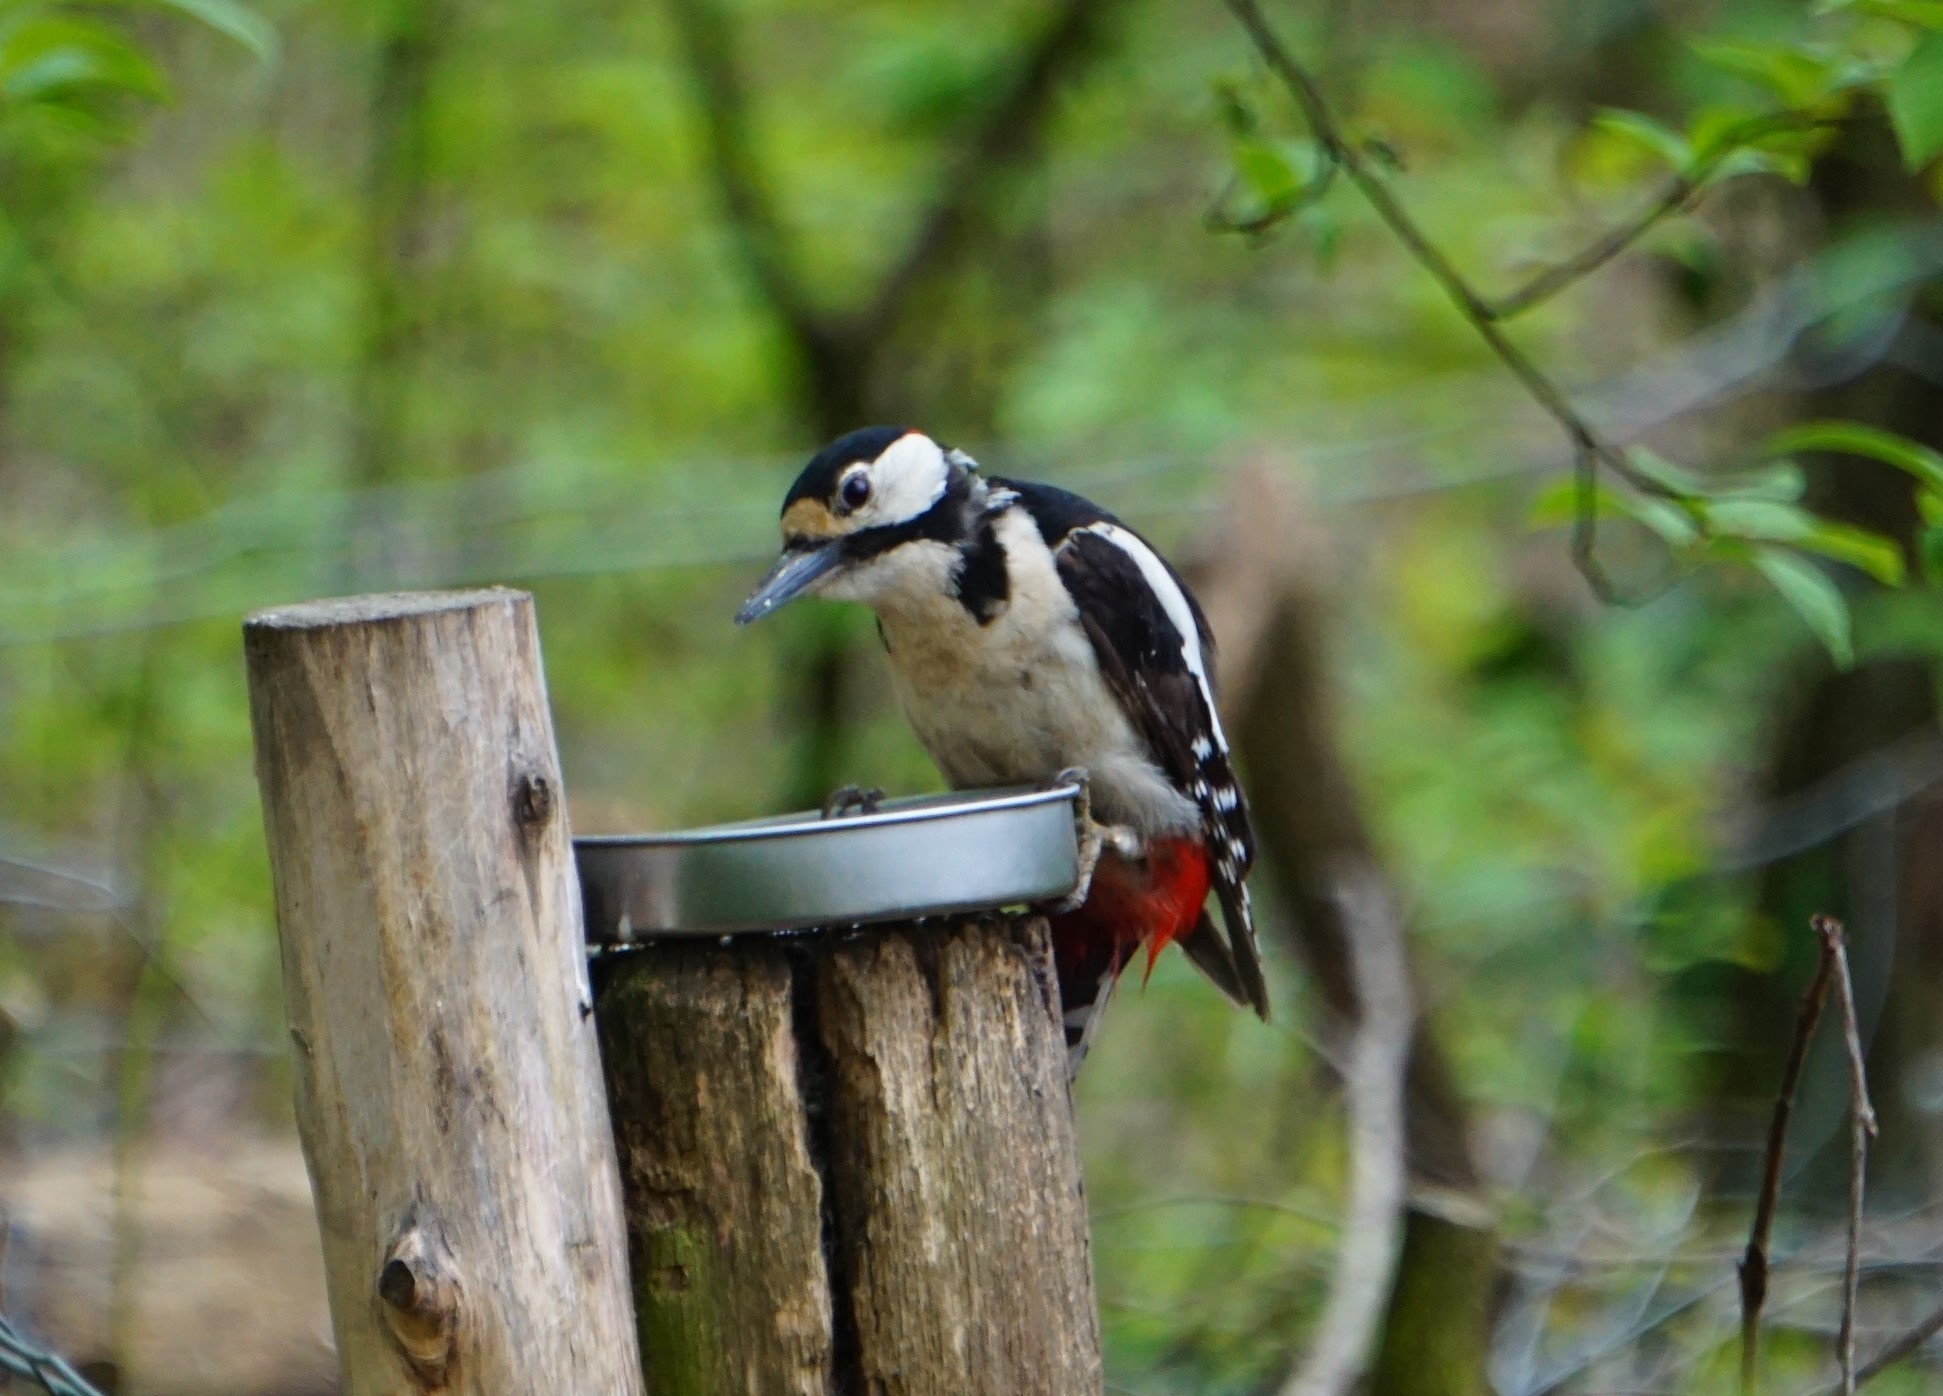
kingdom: Animalia
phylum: Chordata
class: Aves
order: Piciformes
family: Picidae
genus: Dendrocopos
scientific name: Dendrocopos major
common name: Great spotted woodpecker
